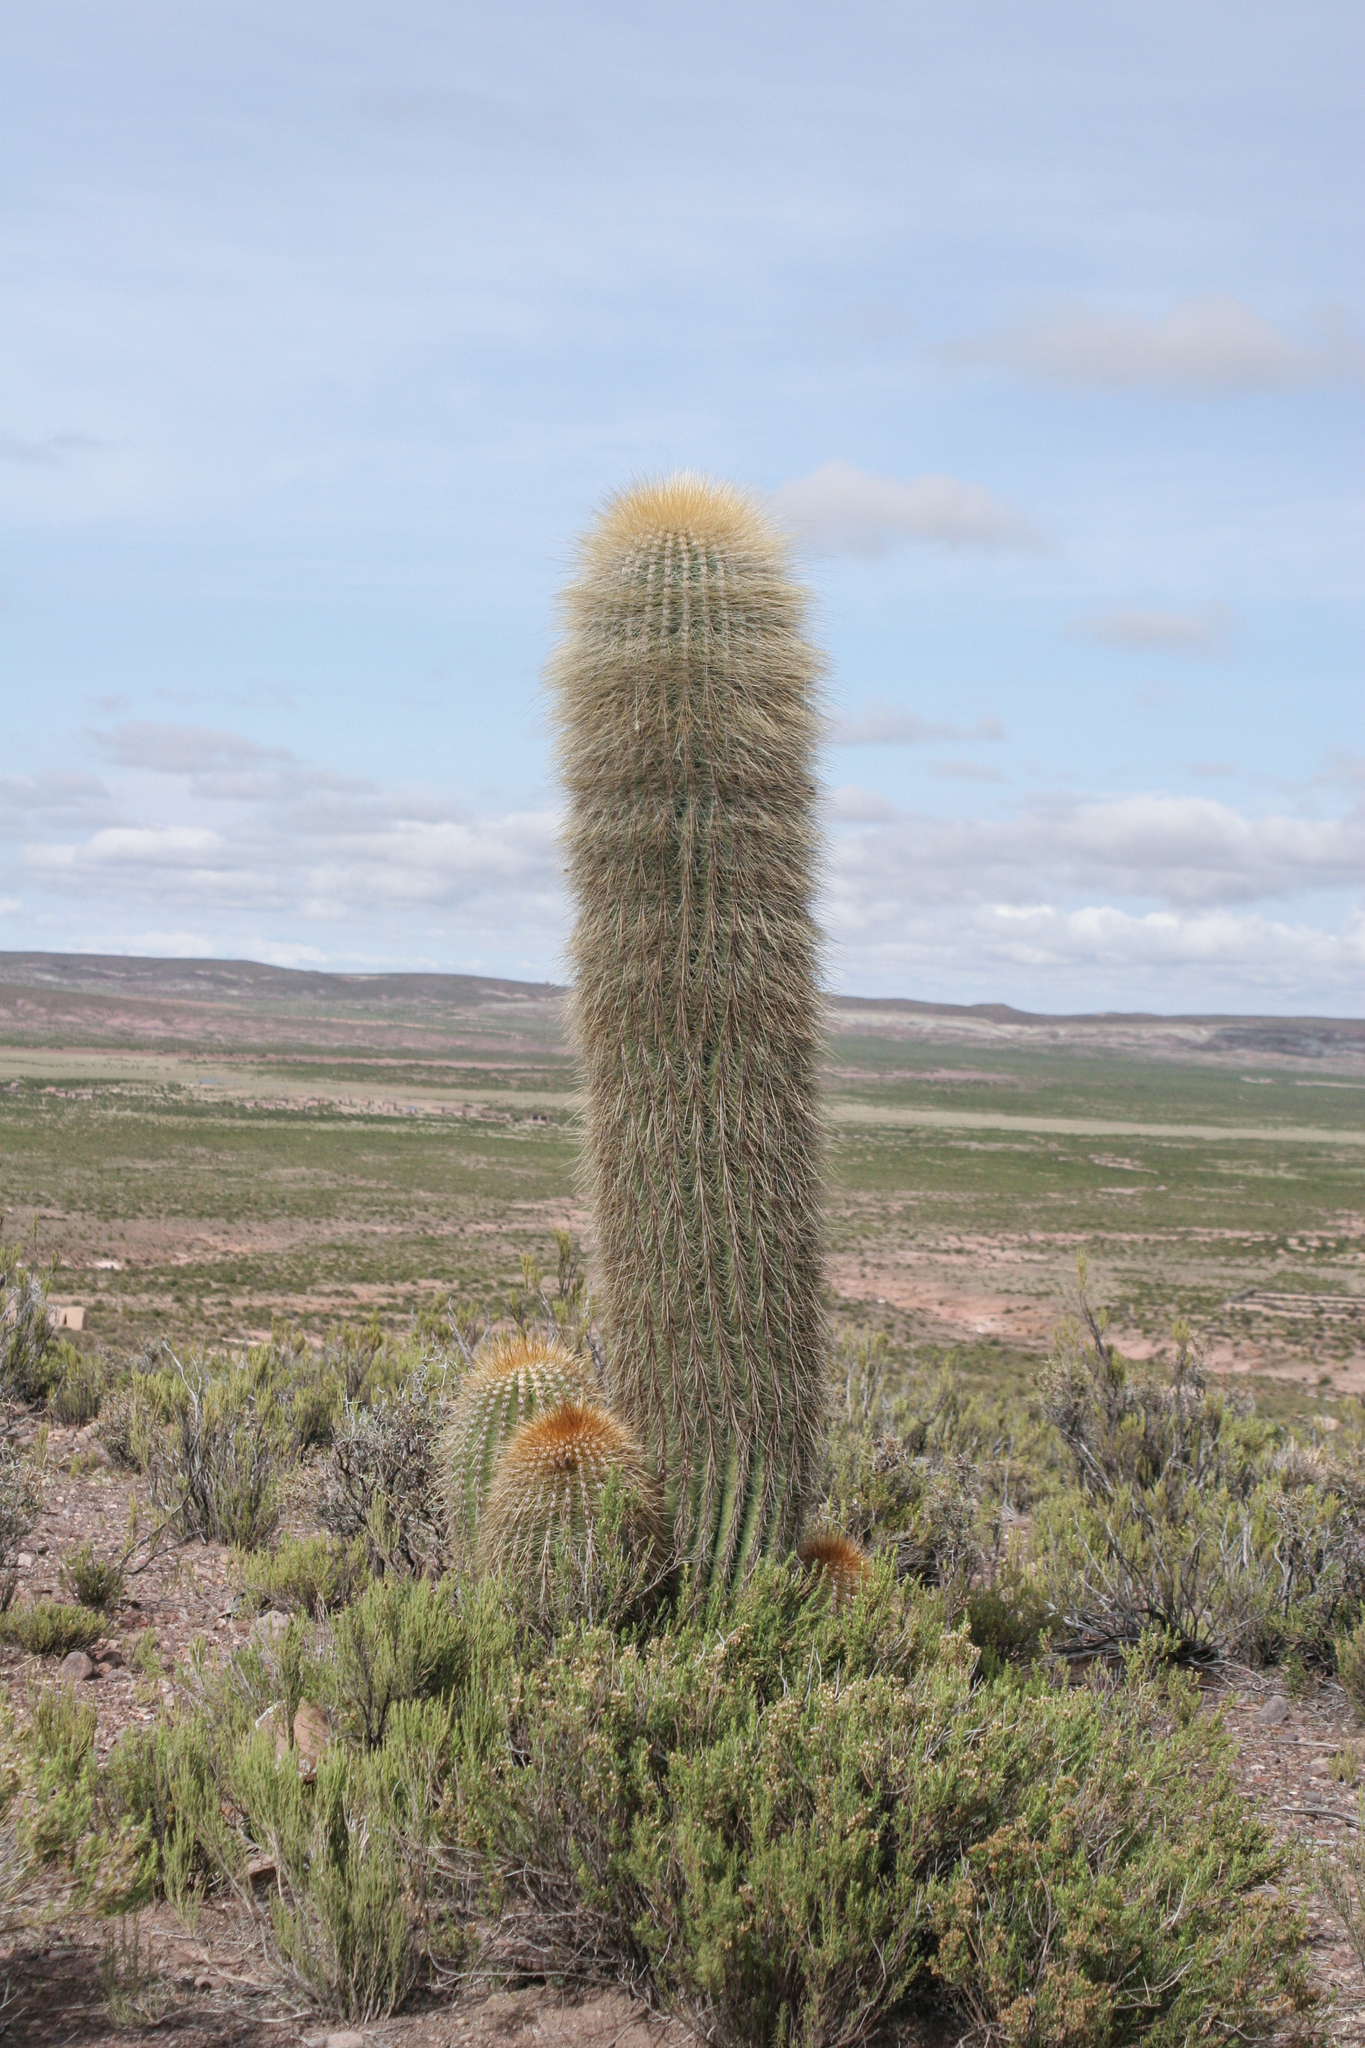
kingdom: Plantae
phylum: Tracheophyta
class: Magnoliopsida
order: Caryophyllales
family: Cactaceae
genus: Soehrensia
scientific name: Soehrensia tarijensis
